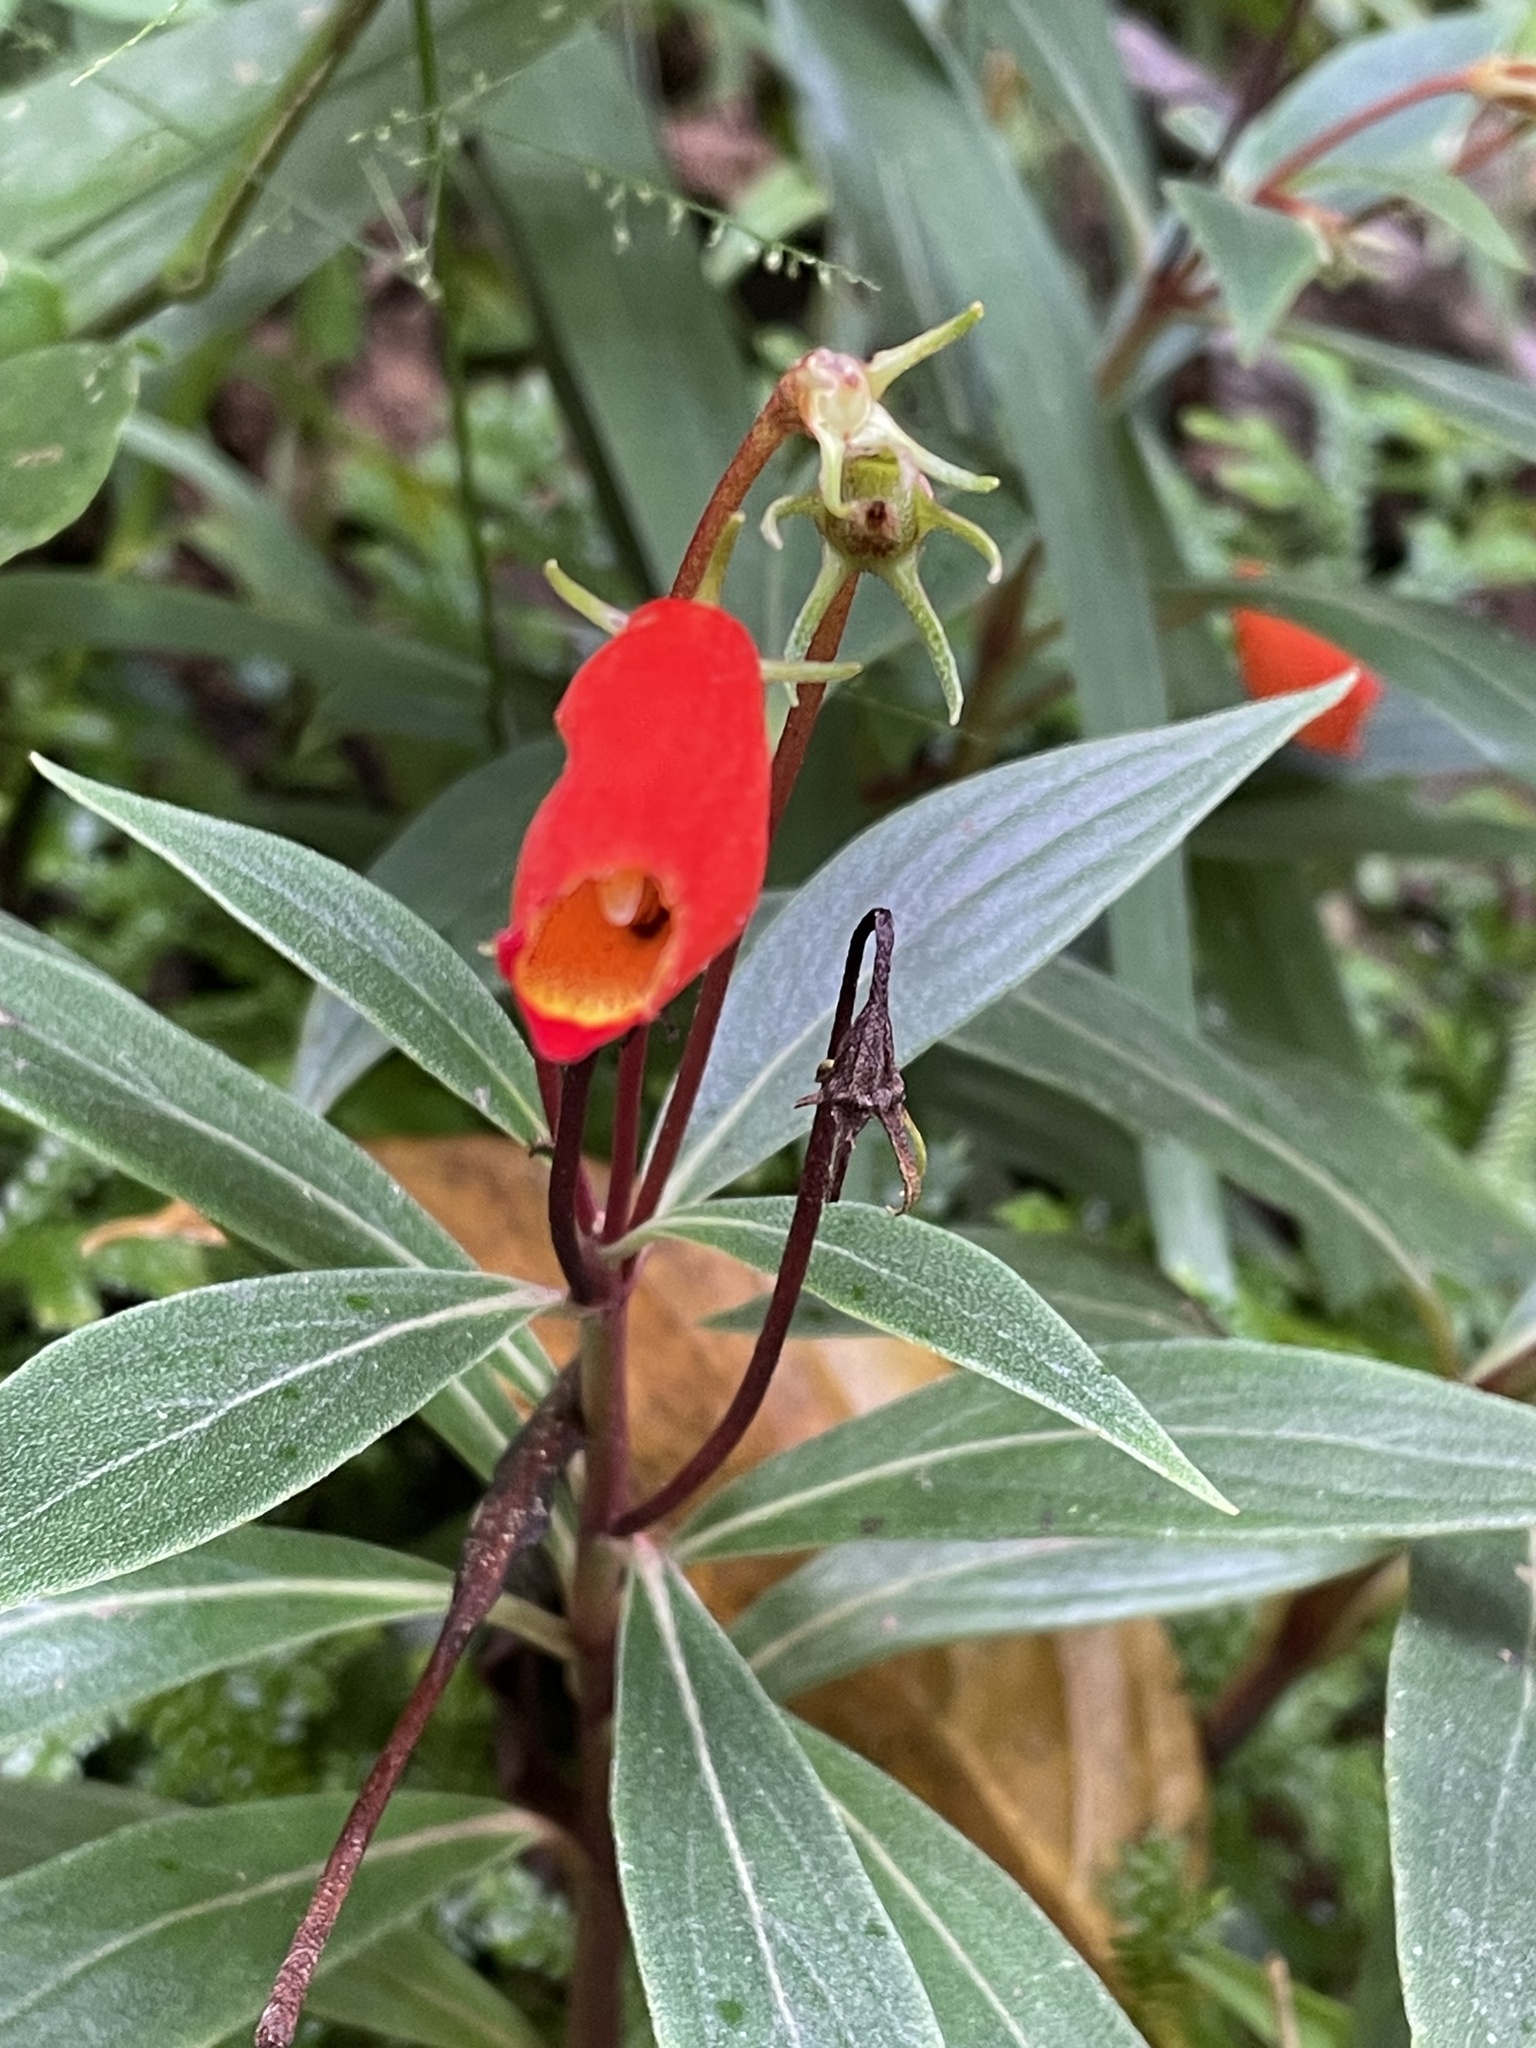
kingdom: Plantae
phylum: Tracheophyta
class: Magnoliopsida
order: Lamiales
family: Gesneriaceae
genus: Seemannia
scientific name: Seemannia sylvatica
